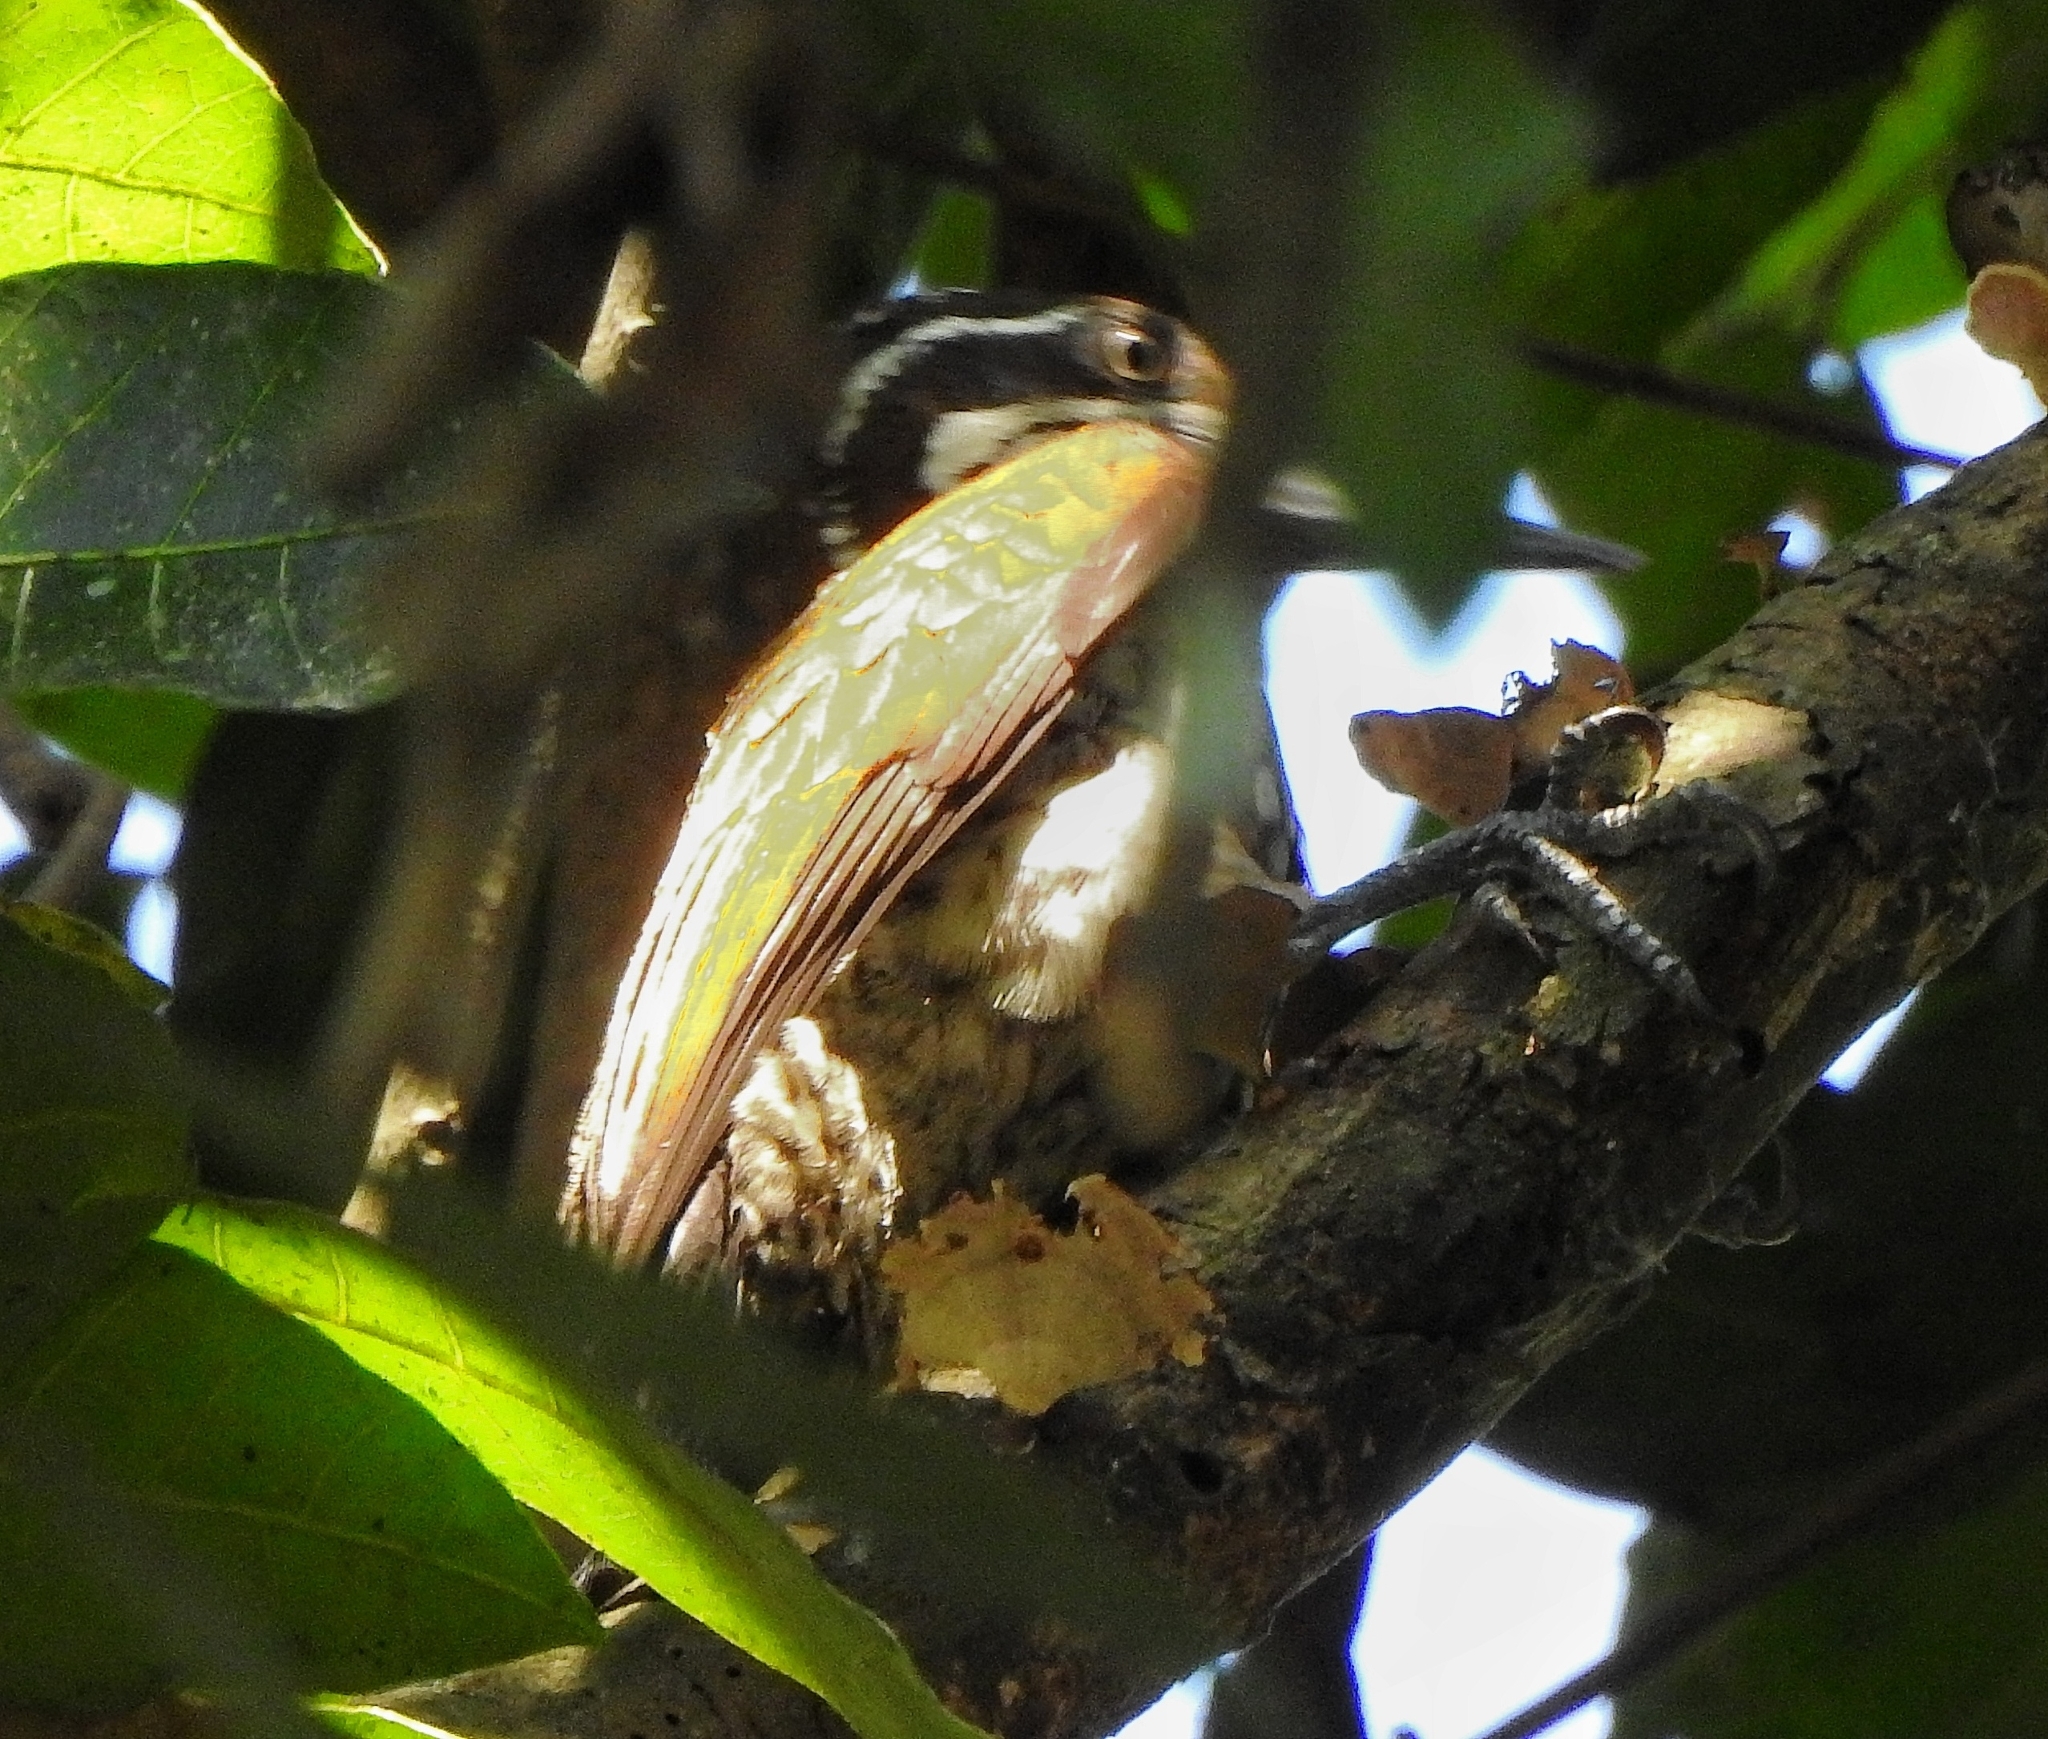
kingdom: Animalia
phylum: Chordata
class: Aves
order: Piciformes
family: Picidae
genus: Chrysocolaptes
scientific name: Chrysocolaptes socialis
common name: Malabar flameback
